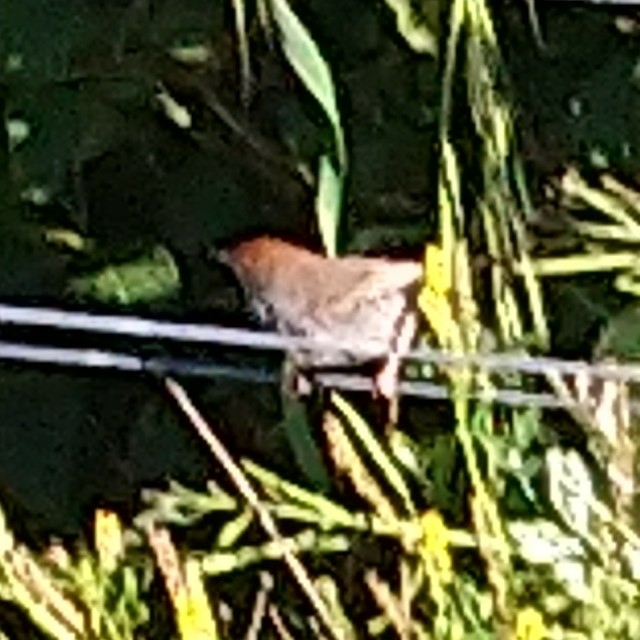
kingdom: Animalia
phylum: Chordata
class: Aves
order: Passeriformes
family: Cisticolidae
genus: Cisticola
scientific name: Cisticola fulvicapilla
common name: Neddicky
